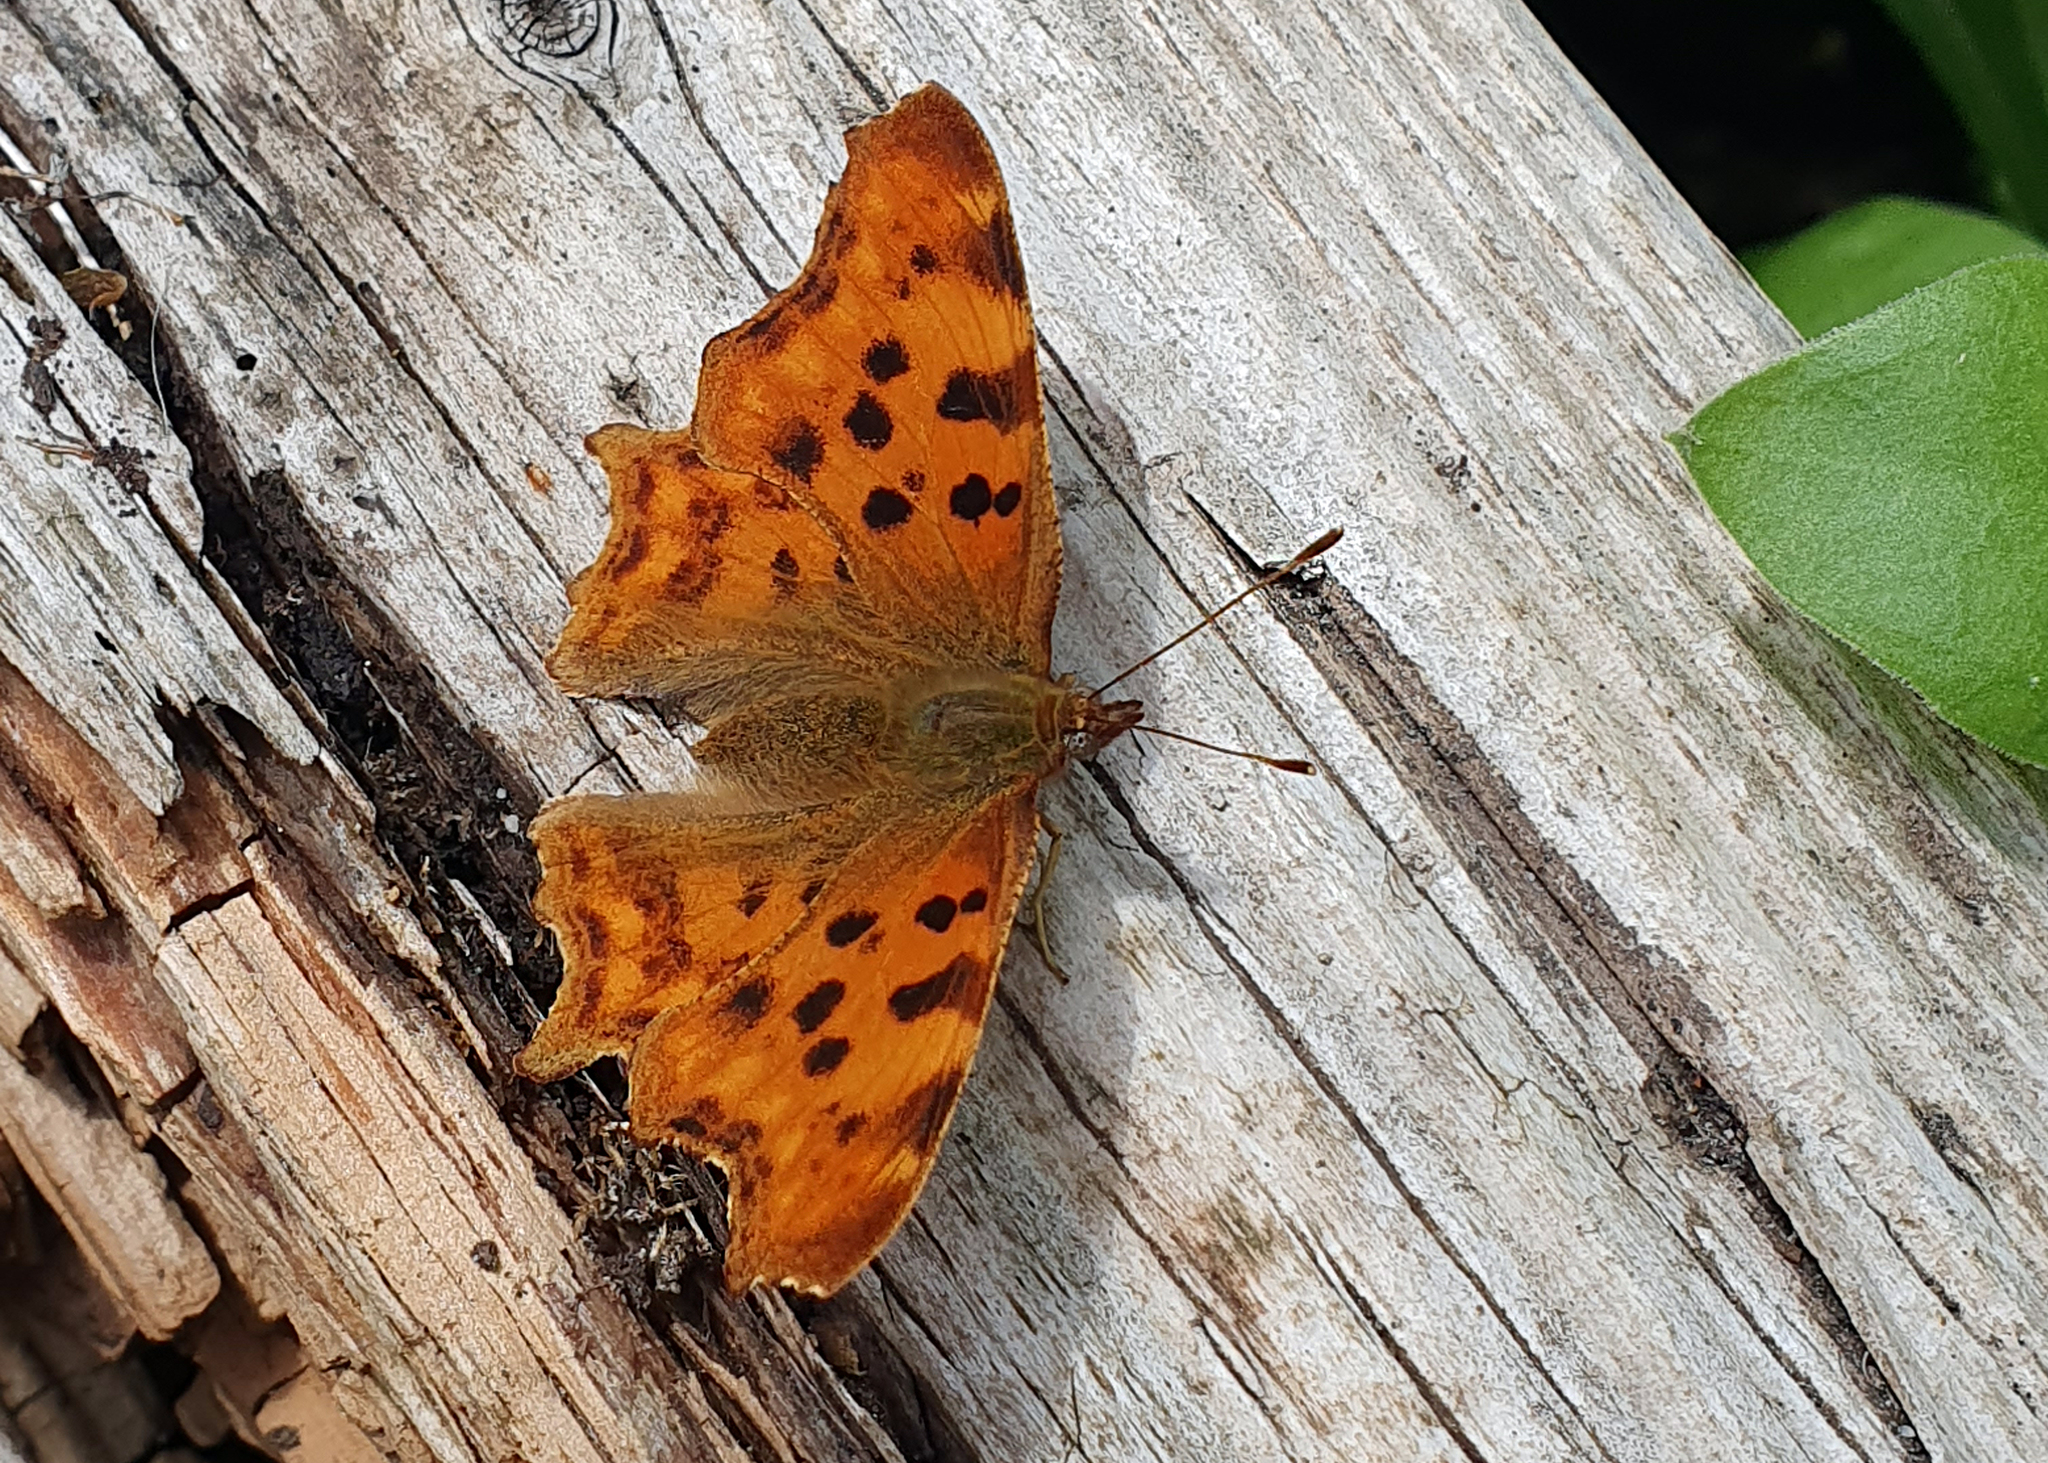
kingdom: Animalia
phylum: Arthropoda
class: Insecta
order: Lepidoptera
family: Nymphalidae
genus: Polygonia
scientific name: Polygonia c-album
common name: Comma
